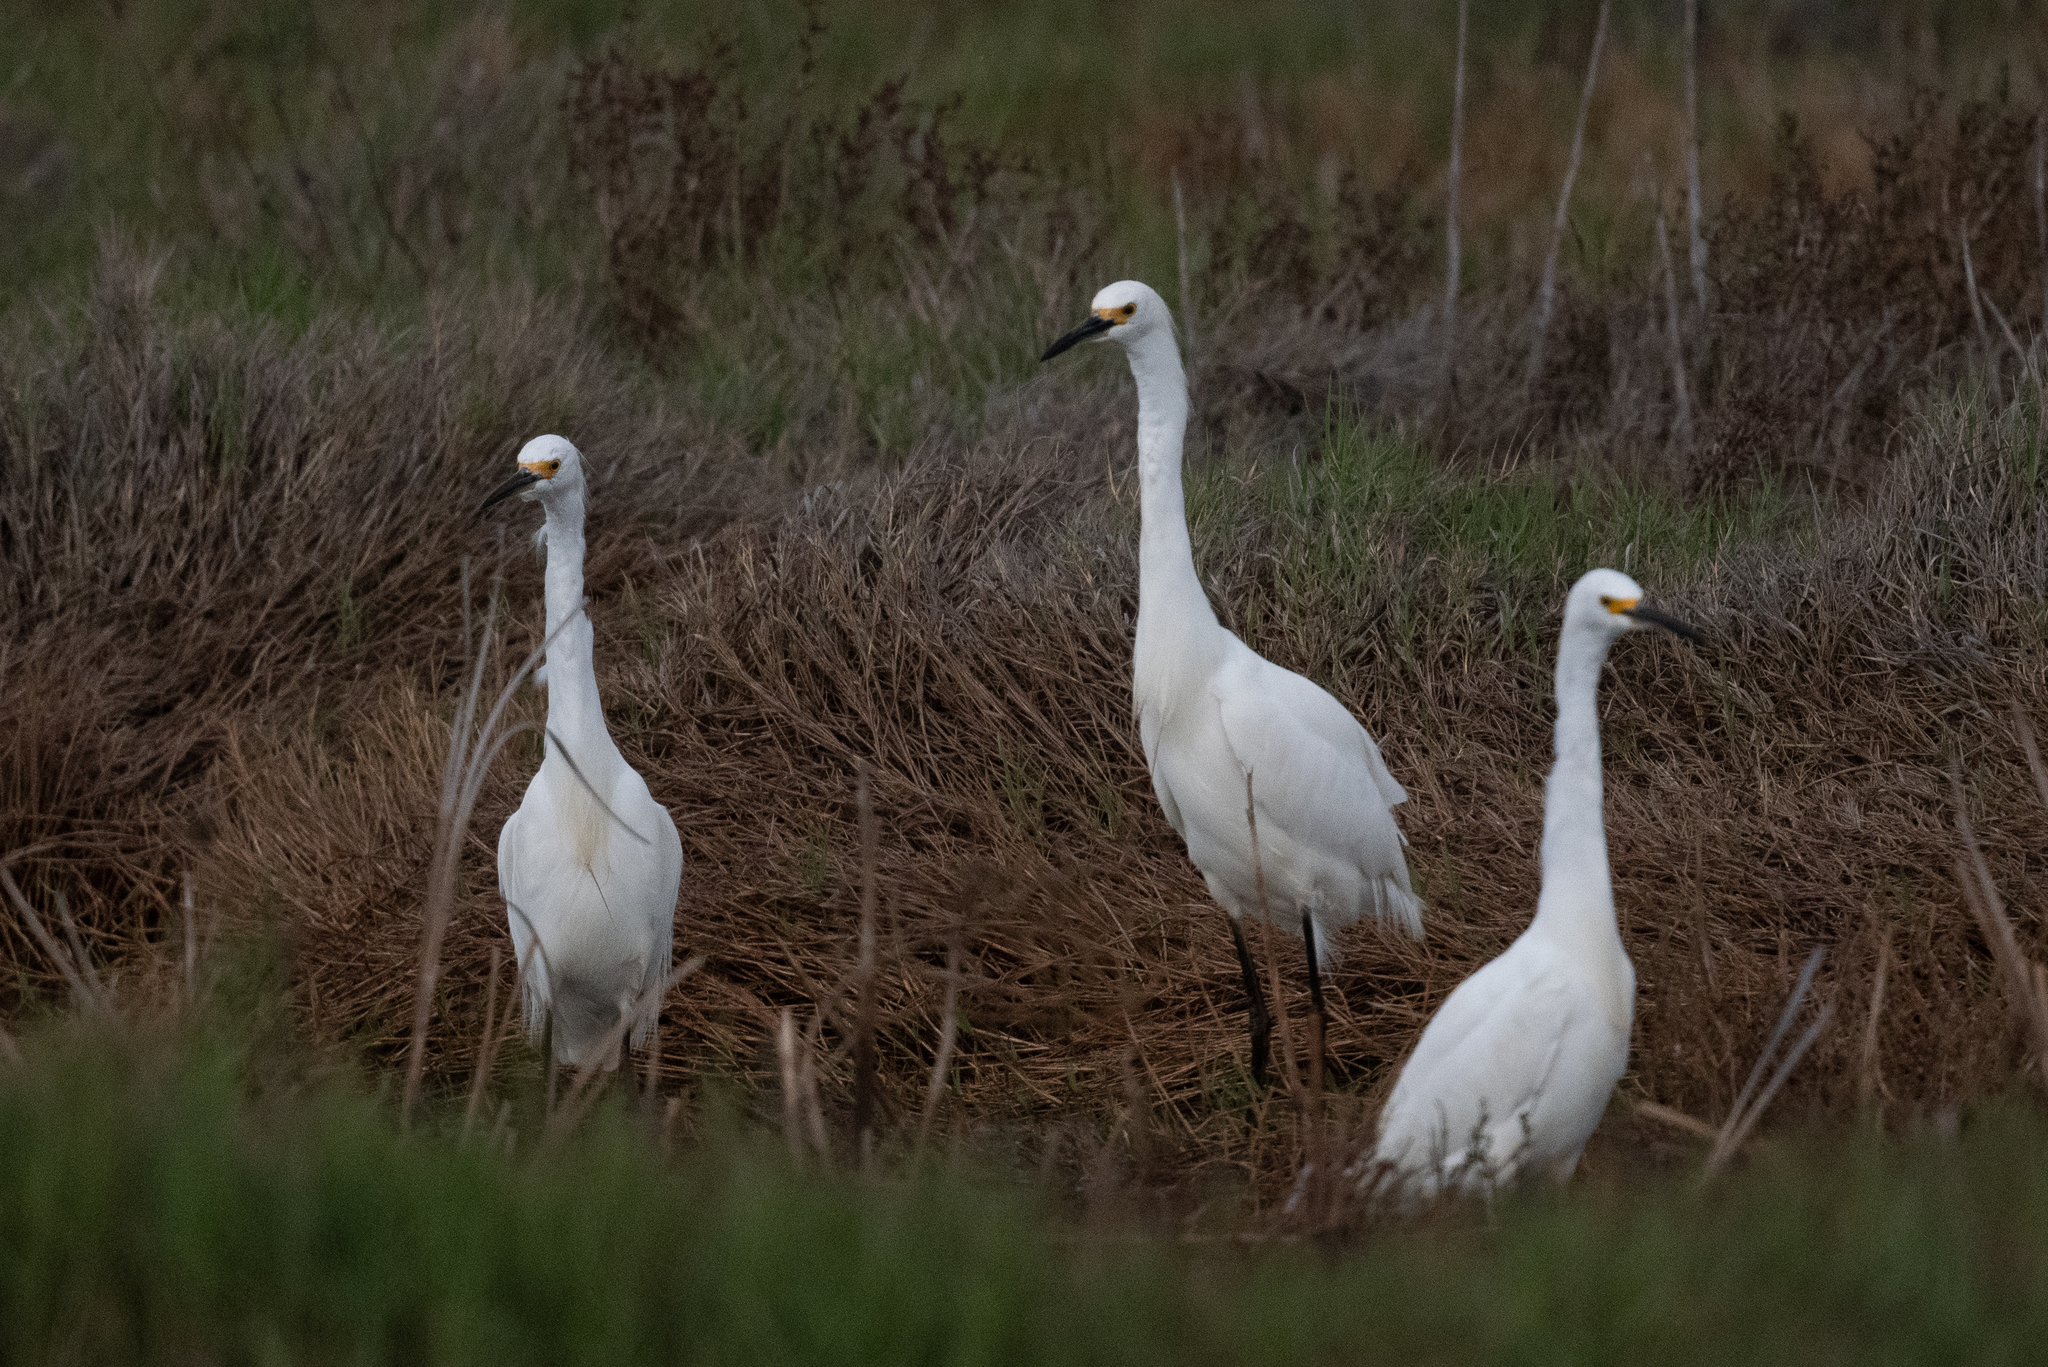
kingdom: Animalia
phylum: Chordata
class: Aves
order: Pelecaniformes
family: Ardeidae
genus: Egretta
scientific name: Egretta thula
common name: Snowy egret
